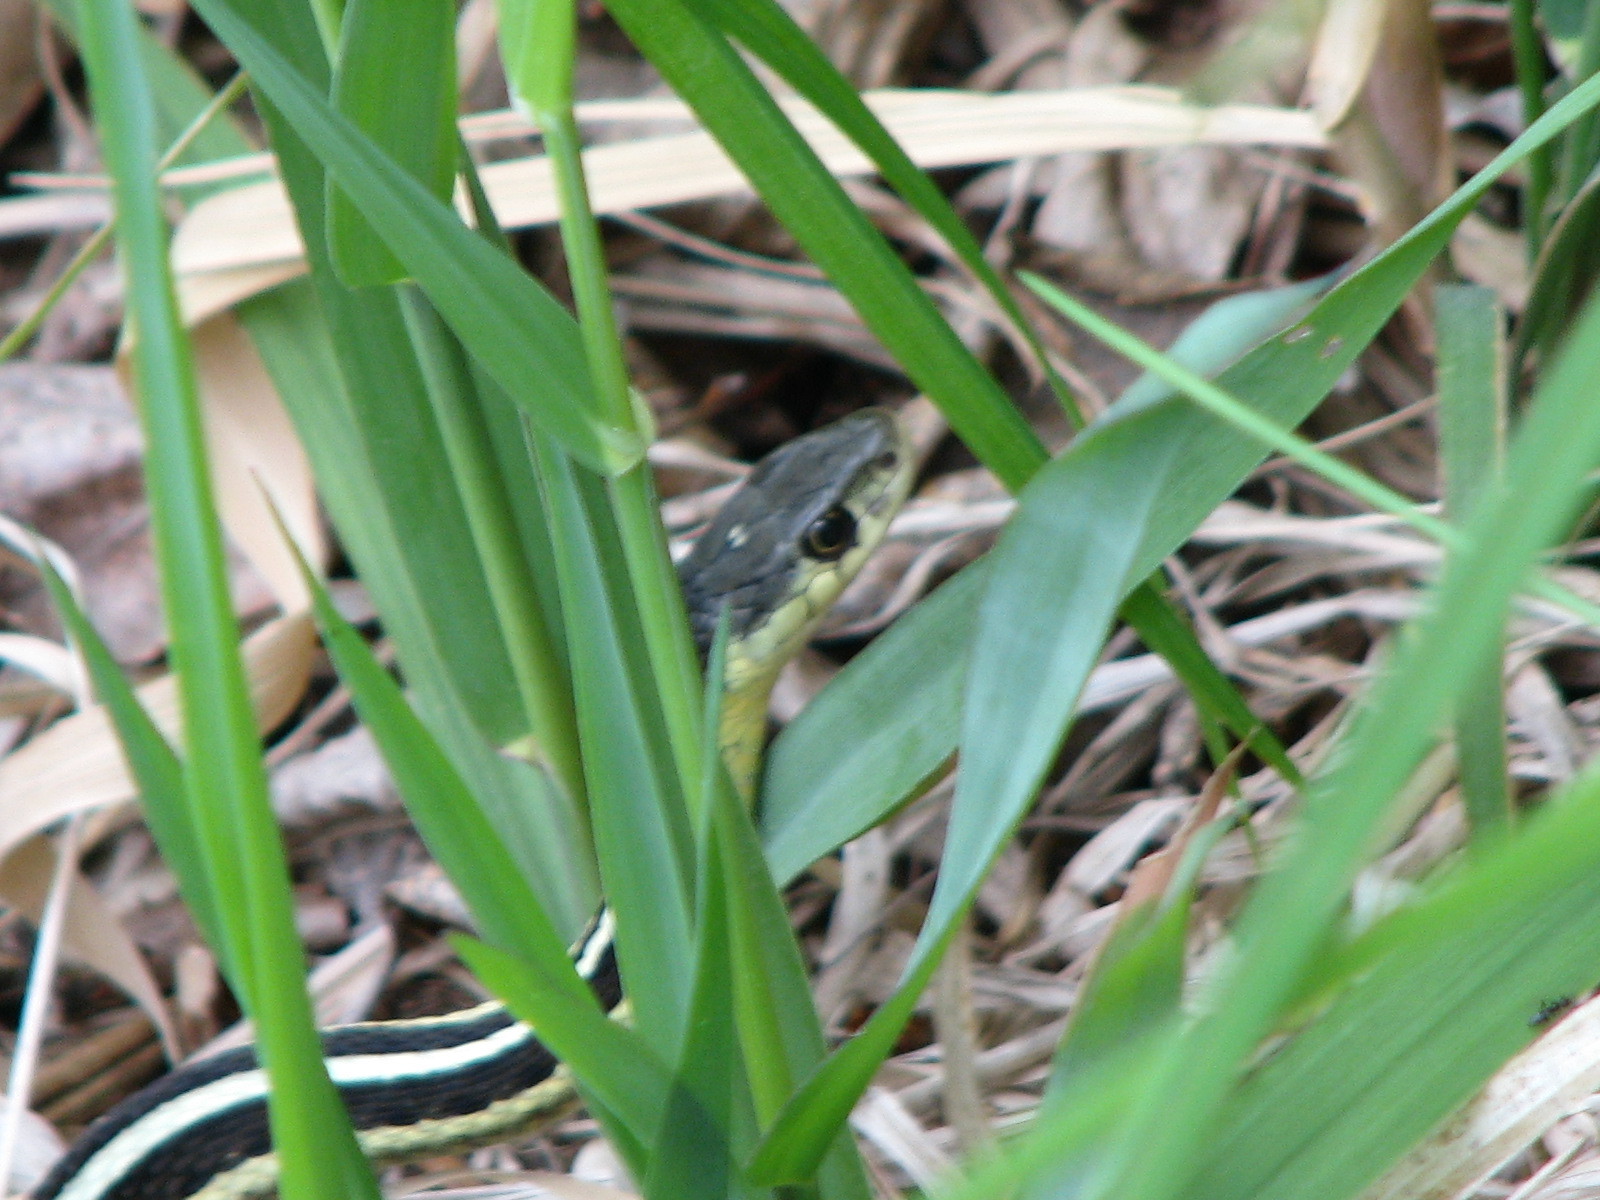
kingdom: Animalia
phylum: Chordata
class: Squamata
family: Colubridae
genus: Thamnophis
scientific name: Thamnophis sirtalis
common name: Common garter snake
